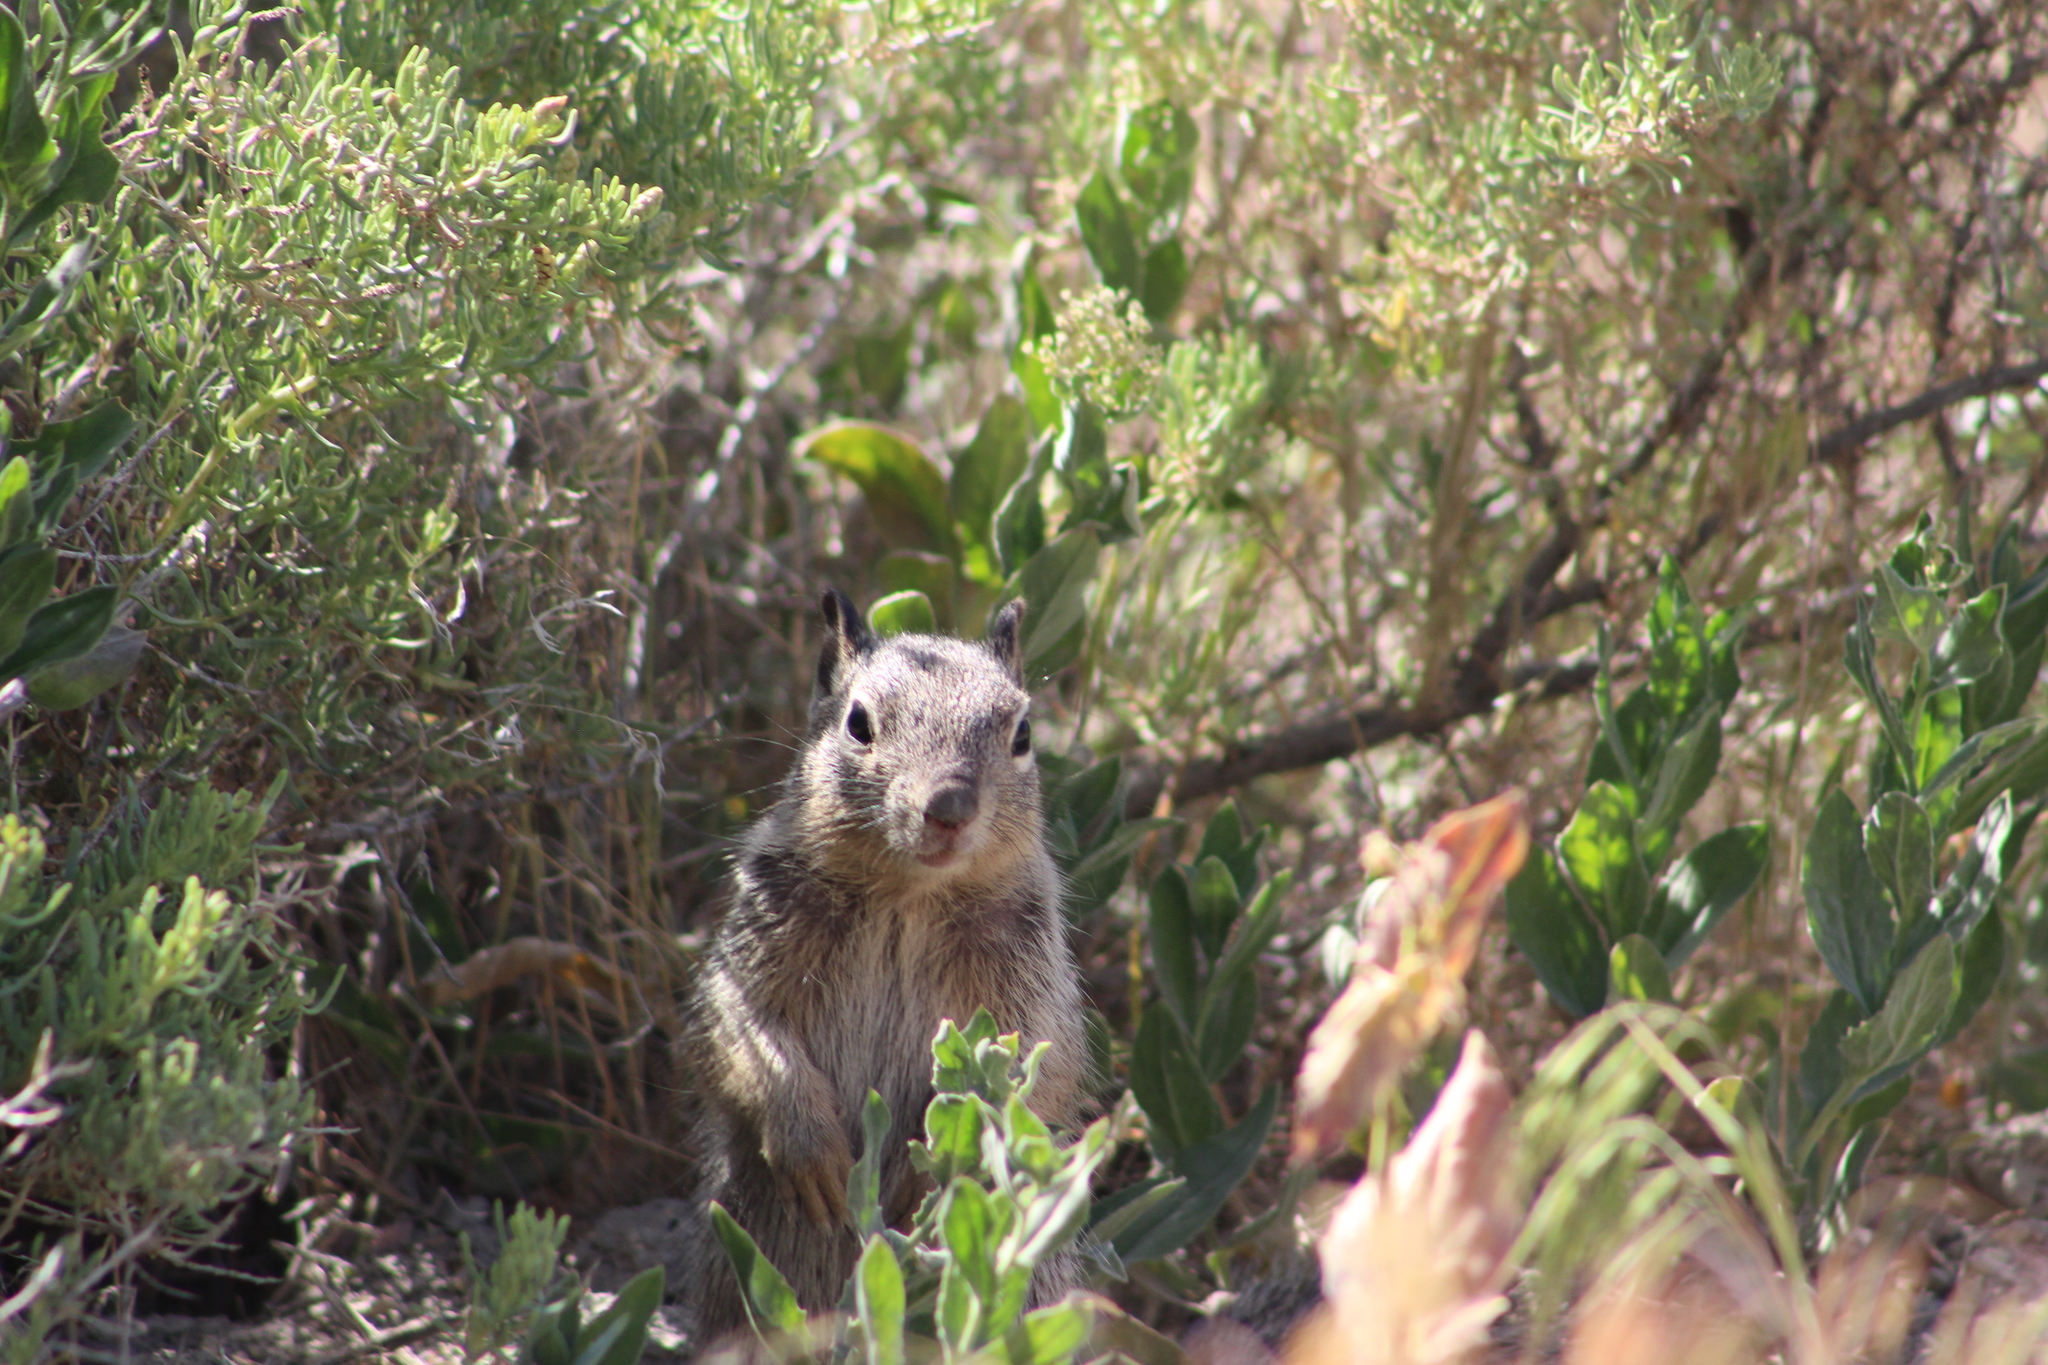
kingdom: Animalia
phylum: Chordata
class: Mammalia
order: Rodentia
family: Sciuridae
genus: Otospermophilus
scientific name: Otospermophilus variegatus
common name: Rock squirrel
